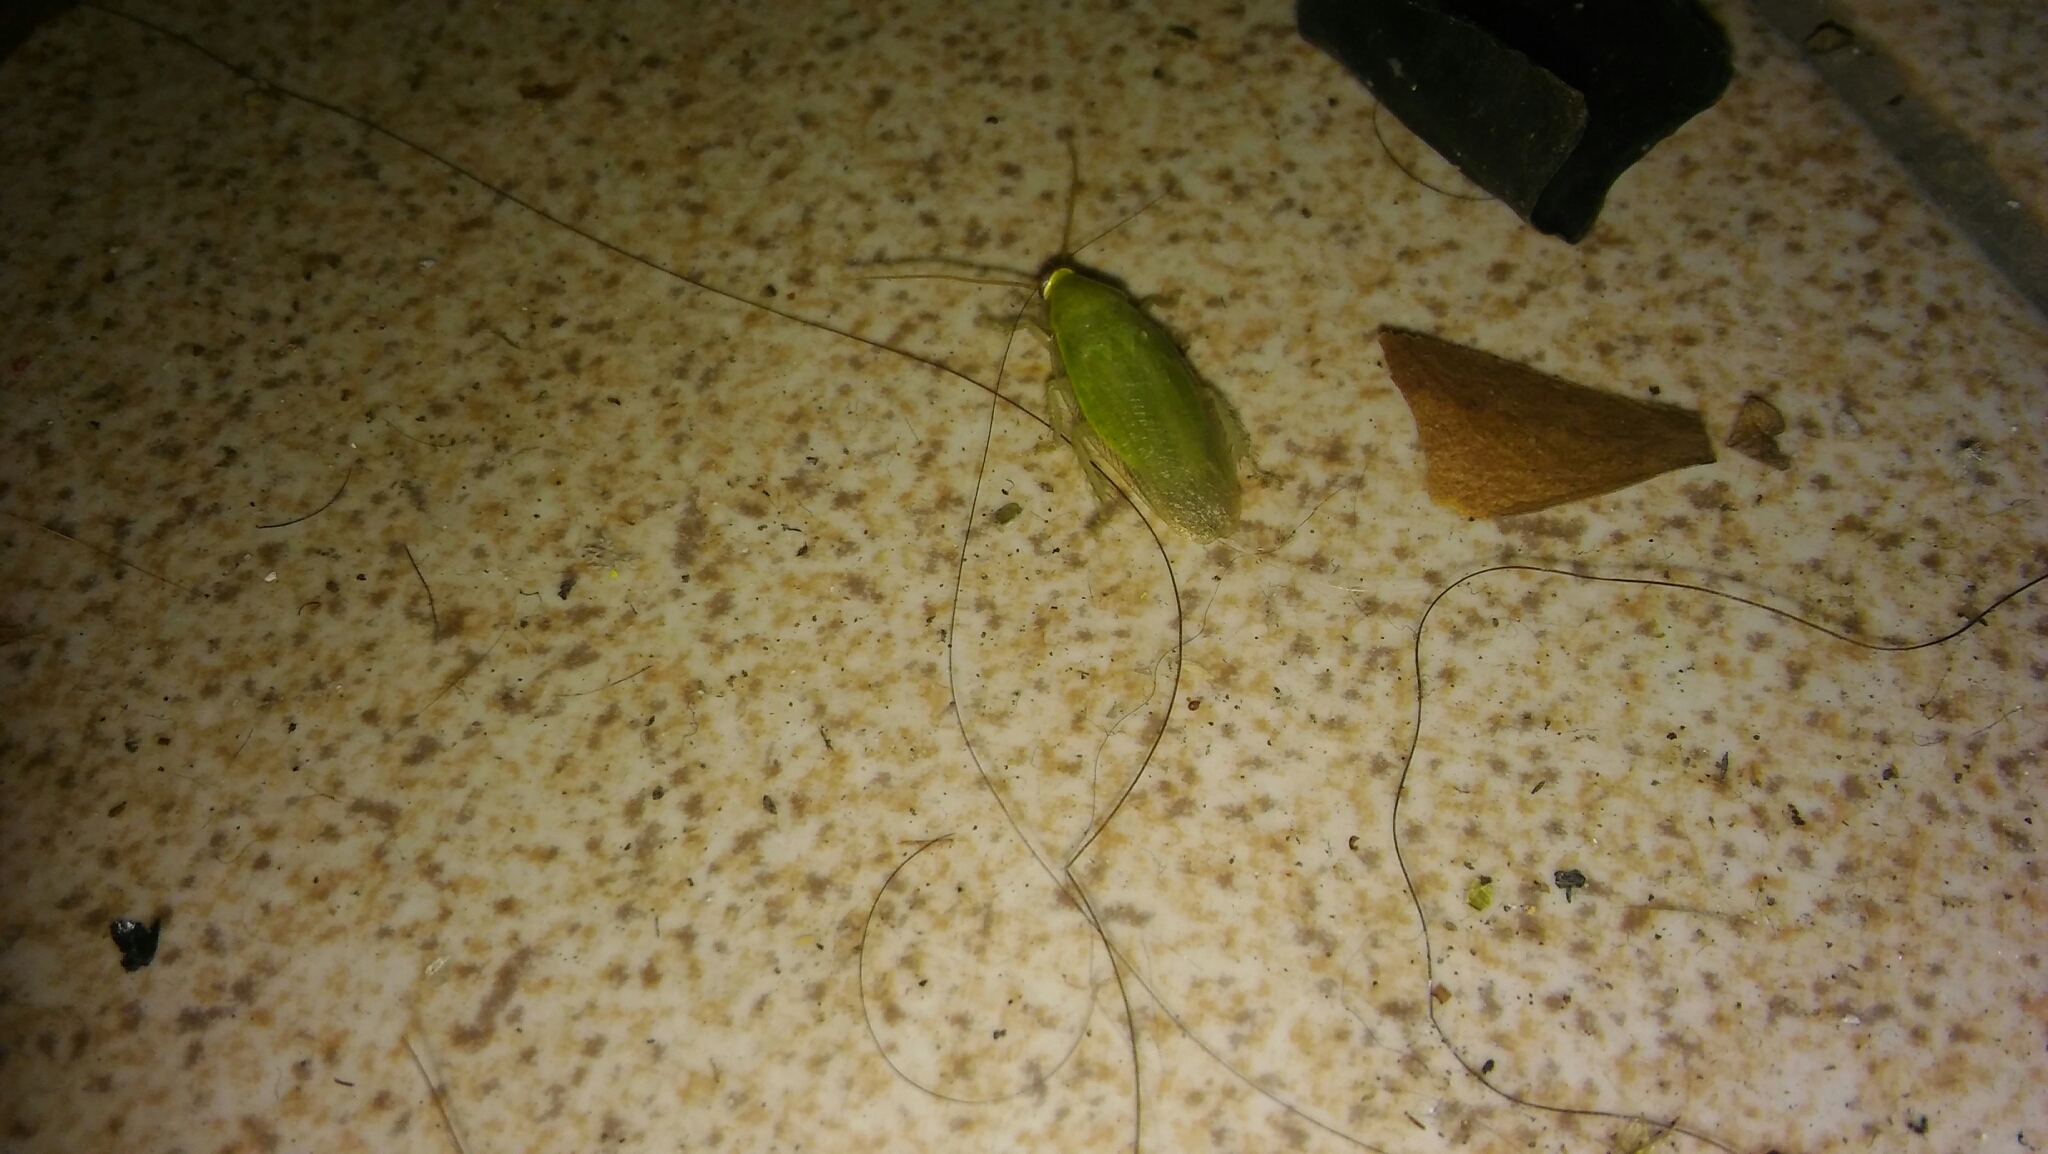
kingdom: Animalia
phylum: Arthropoda
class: Insecta
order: Blattodea
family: Blaberidae
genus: Panchlora
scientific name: Panchlora thalassina
